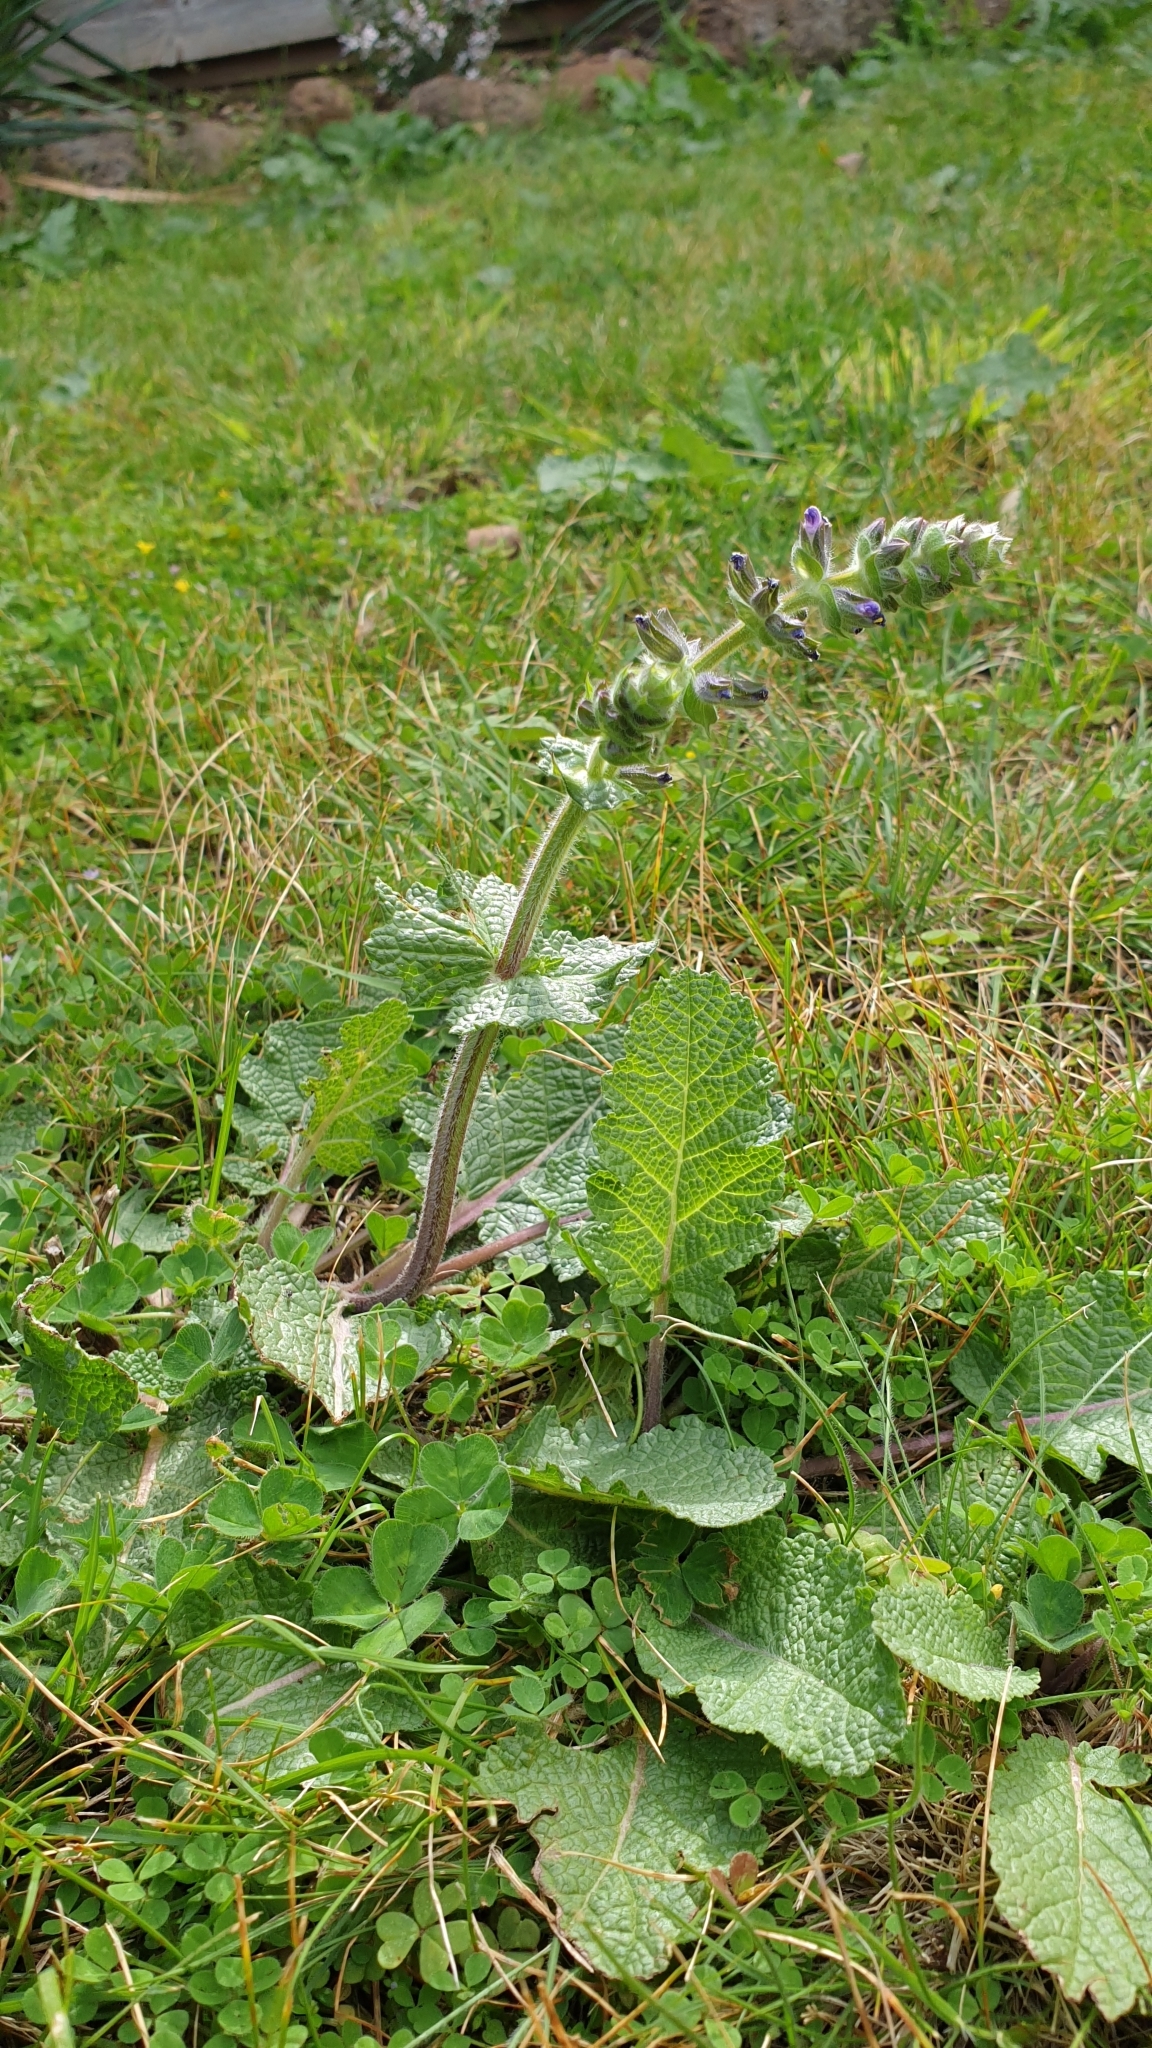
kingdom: Plantae
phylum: Tracheophyta
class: Magnoliopsida
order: Lamiales
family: Lamiaceae
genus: Salvia
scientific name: Salvia verbenaca
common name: Wild clary
